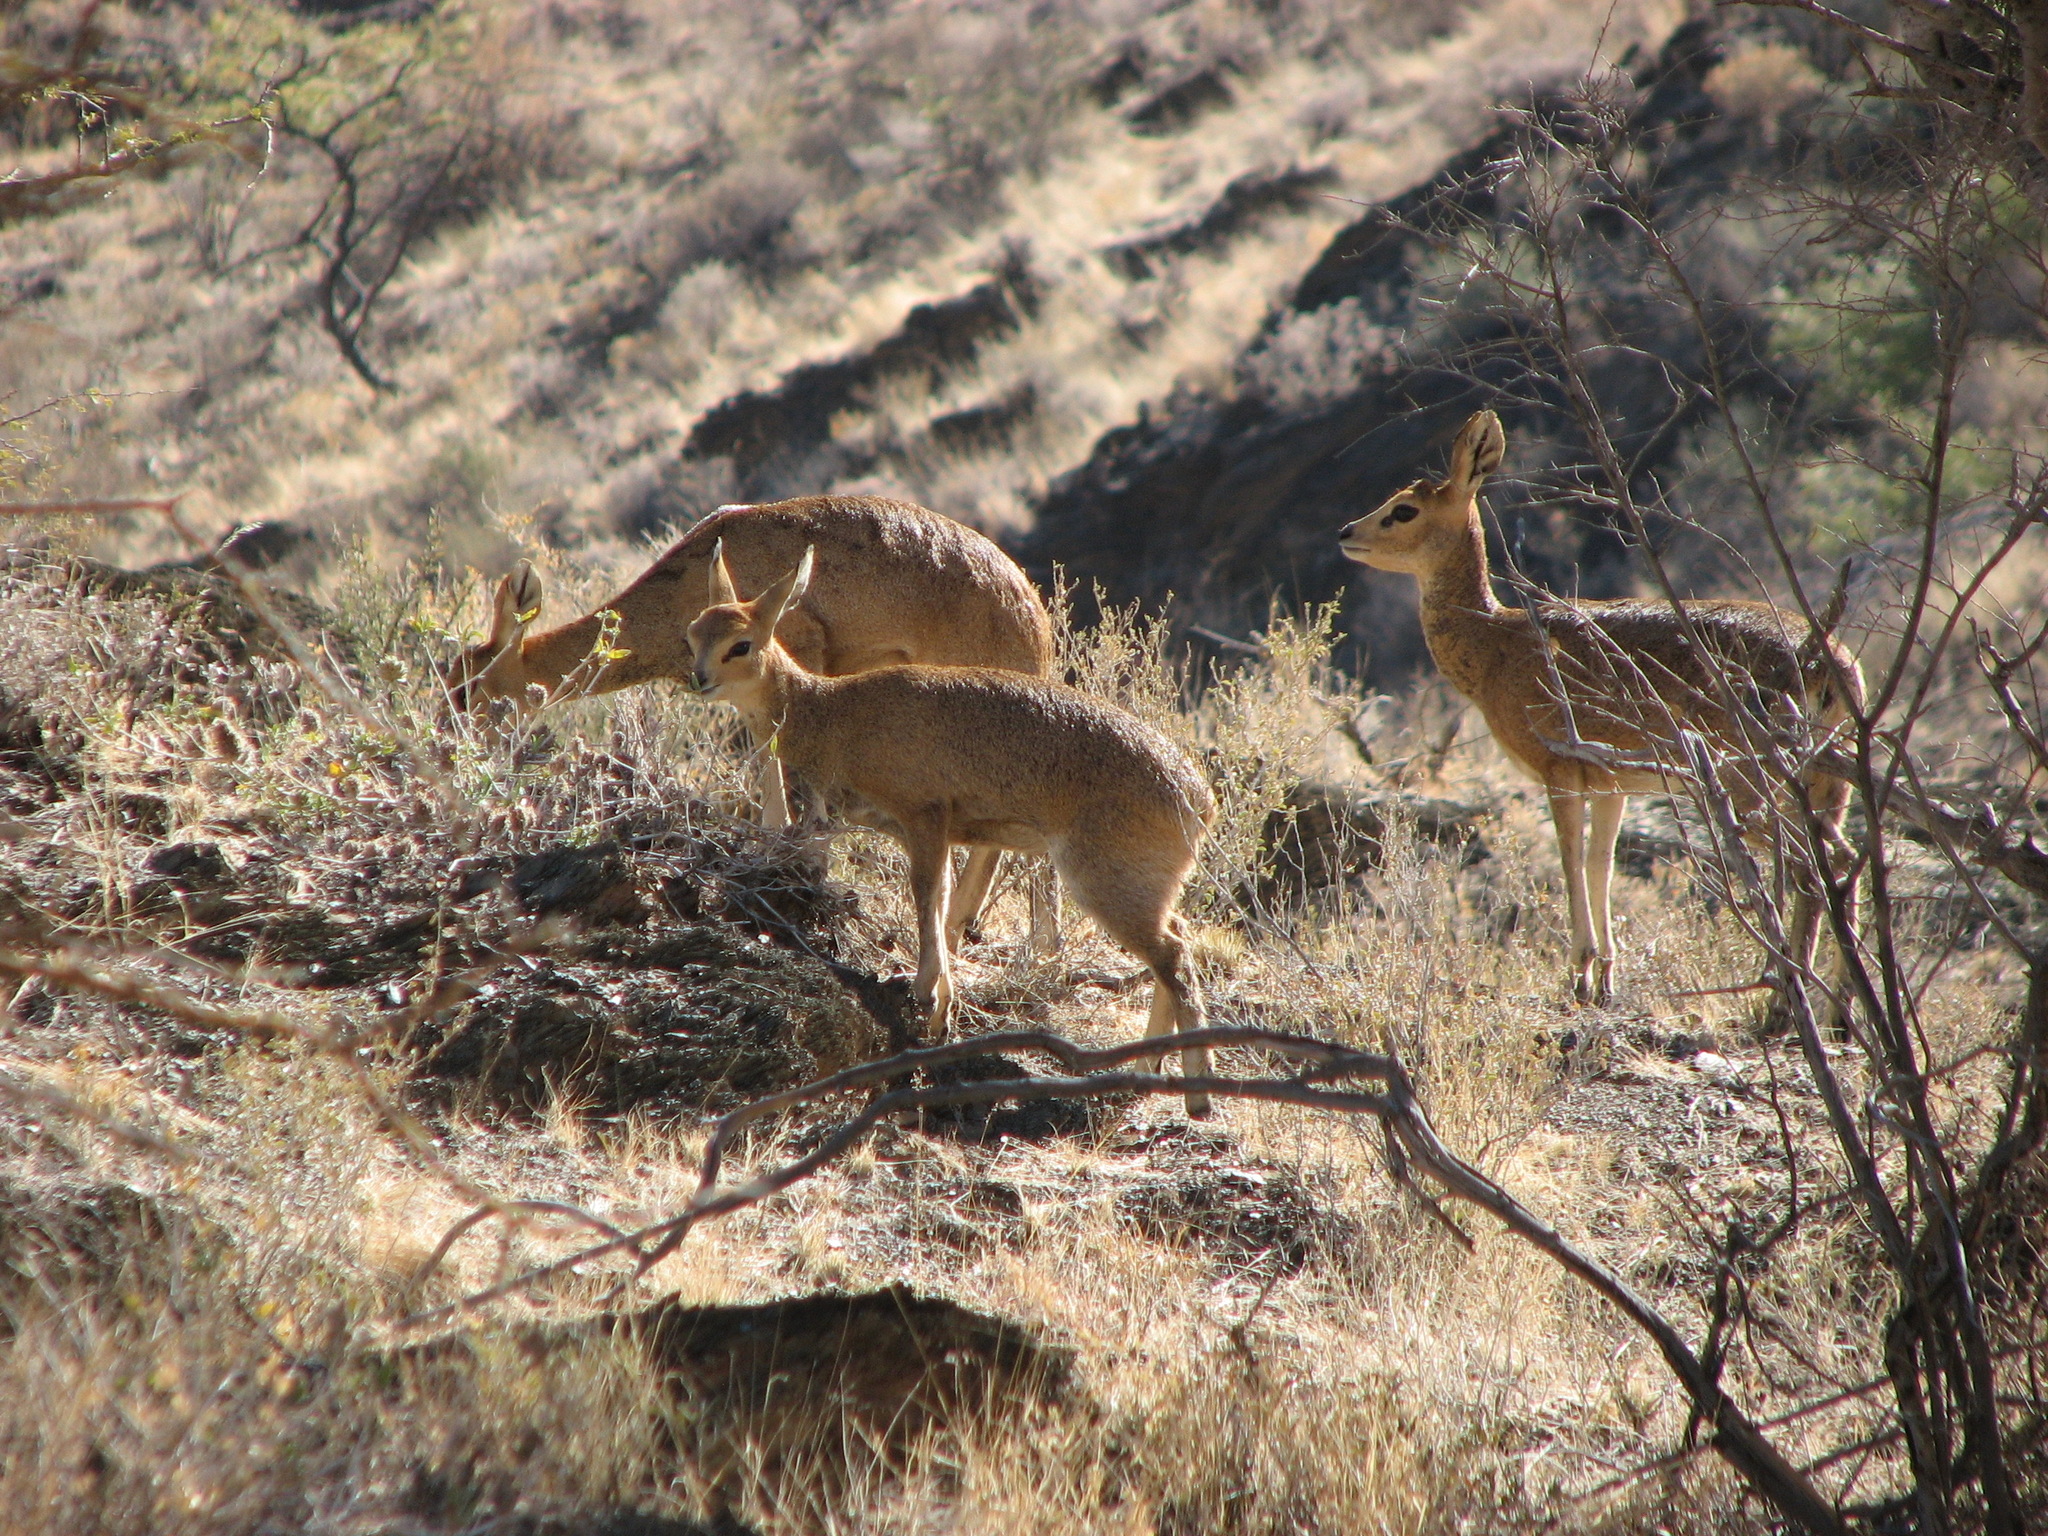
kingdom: Animalia
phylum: Chordata
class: Mammalia
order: Artiodactyla
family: Bovidae
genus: Oreotragus
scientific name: Oreotragus oreotragus
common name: Klipspringer
